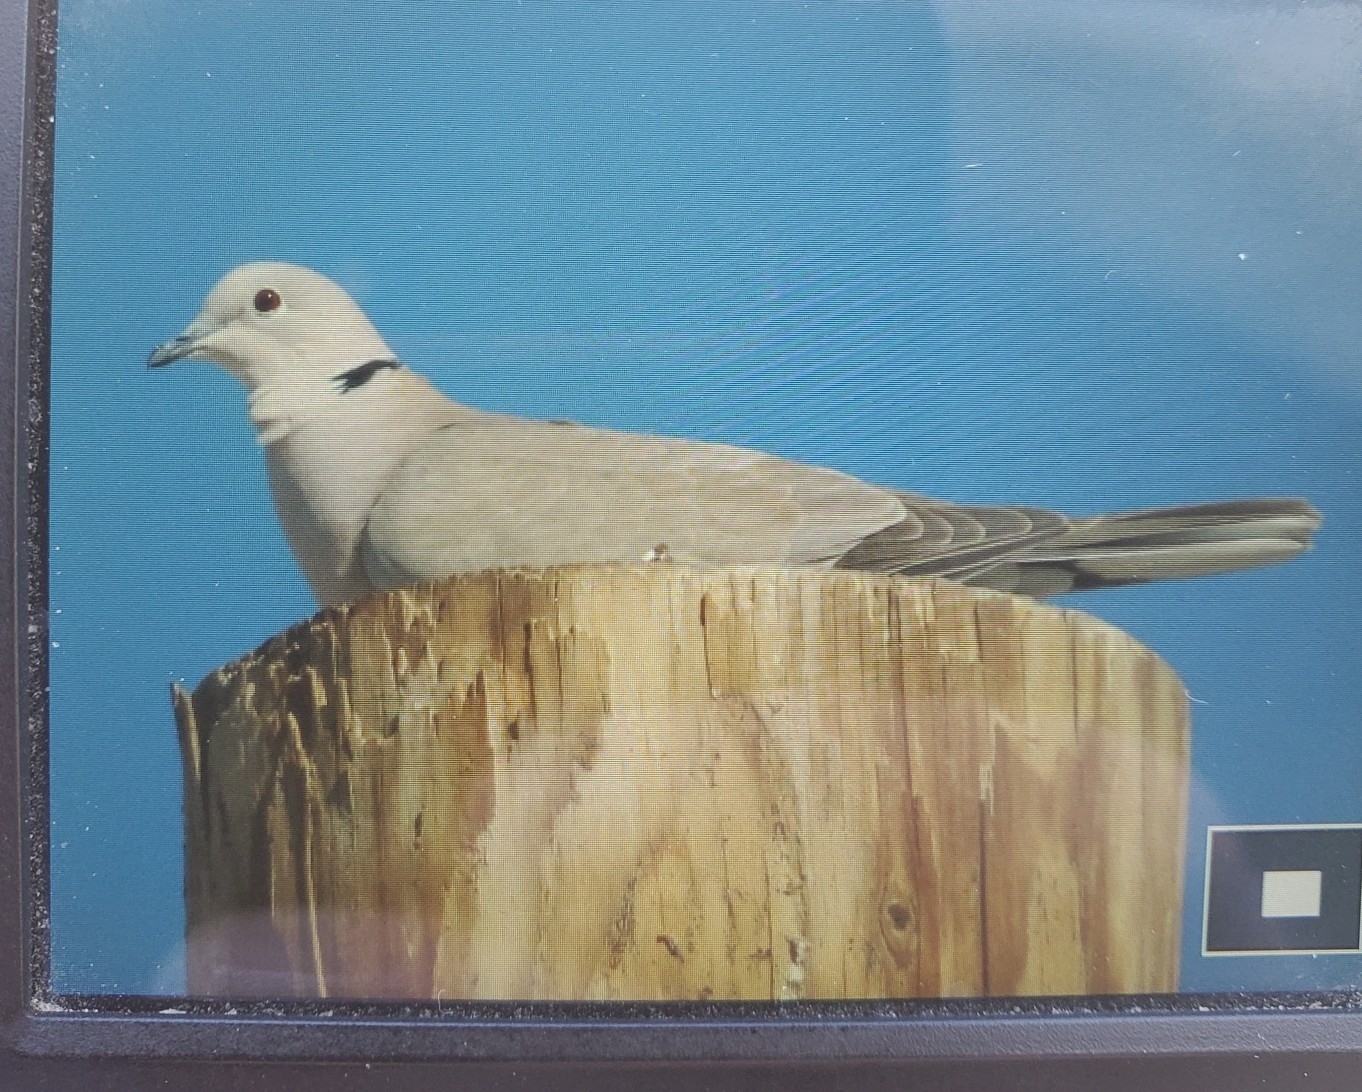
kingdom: Animalia
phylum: Chordata
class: Aves
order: Columbiformes
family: Columbidae
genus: Streptopelia
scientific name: Streptopelia decaocto
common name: Eurasian collared dove
